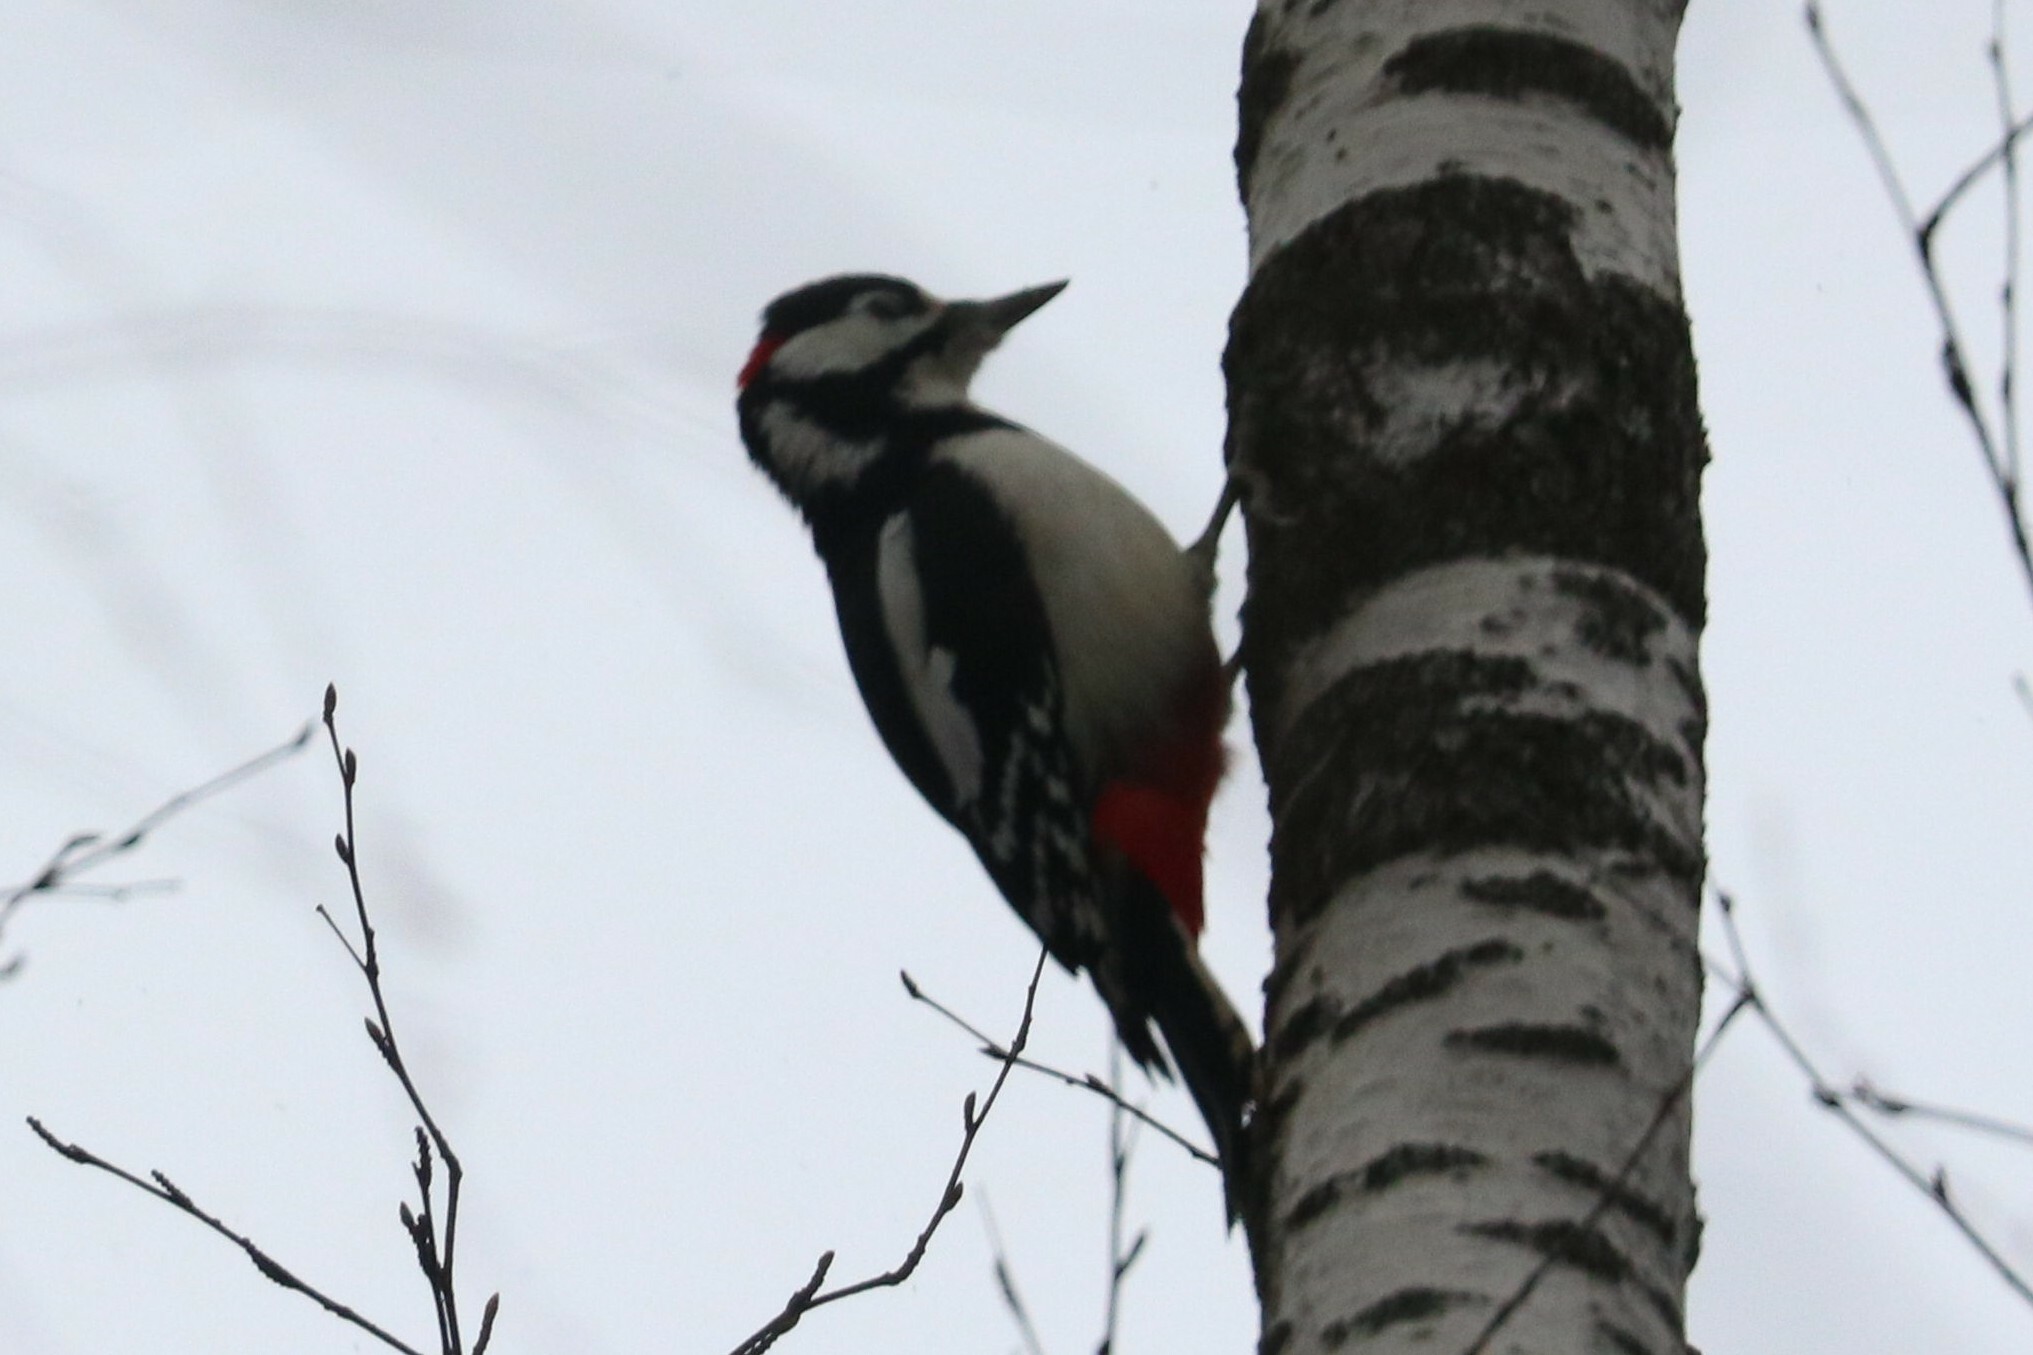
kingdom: Animalia
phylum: Chordata
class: Aves
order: Piciformes
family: Picidae
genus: Dendrocopos
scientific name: Dendrocopos major
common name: Great spotted woodpecker
